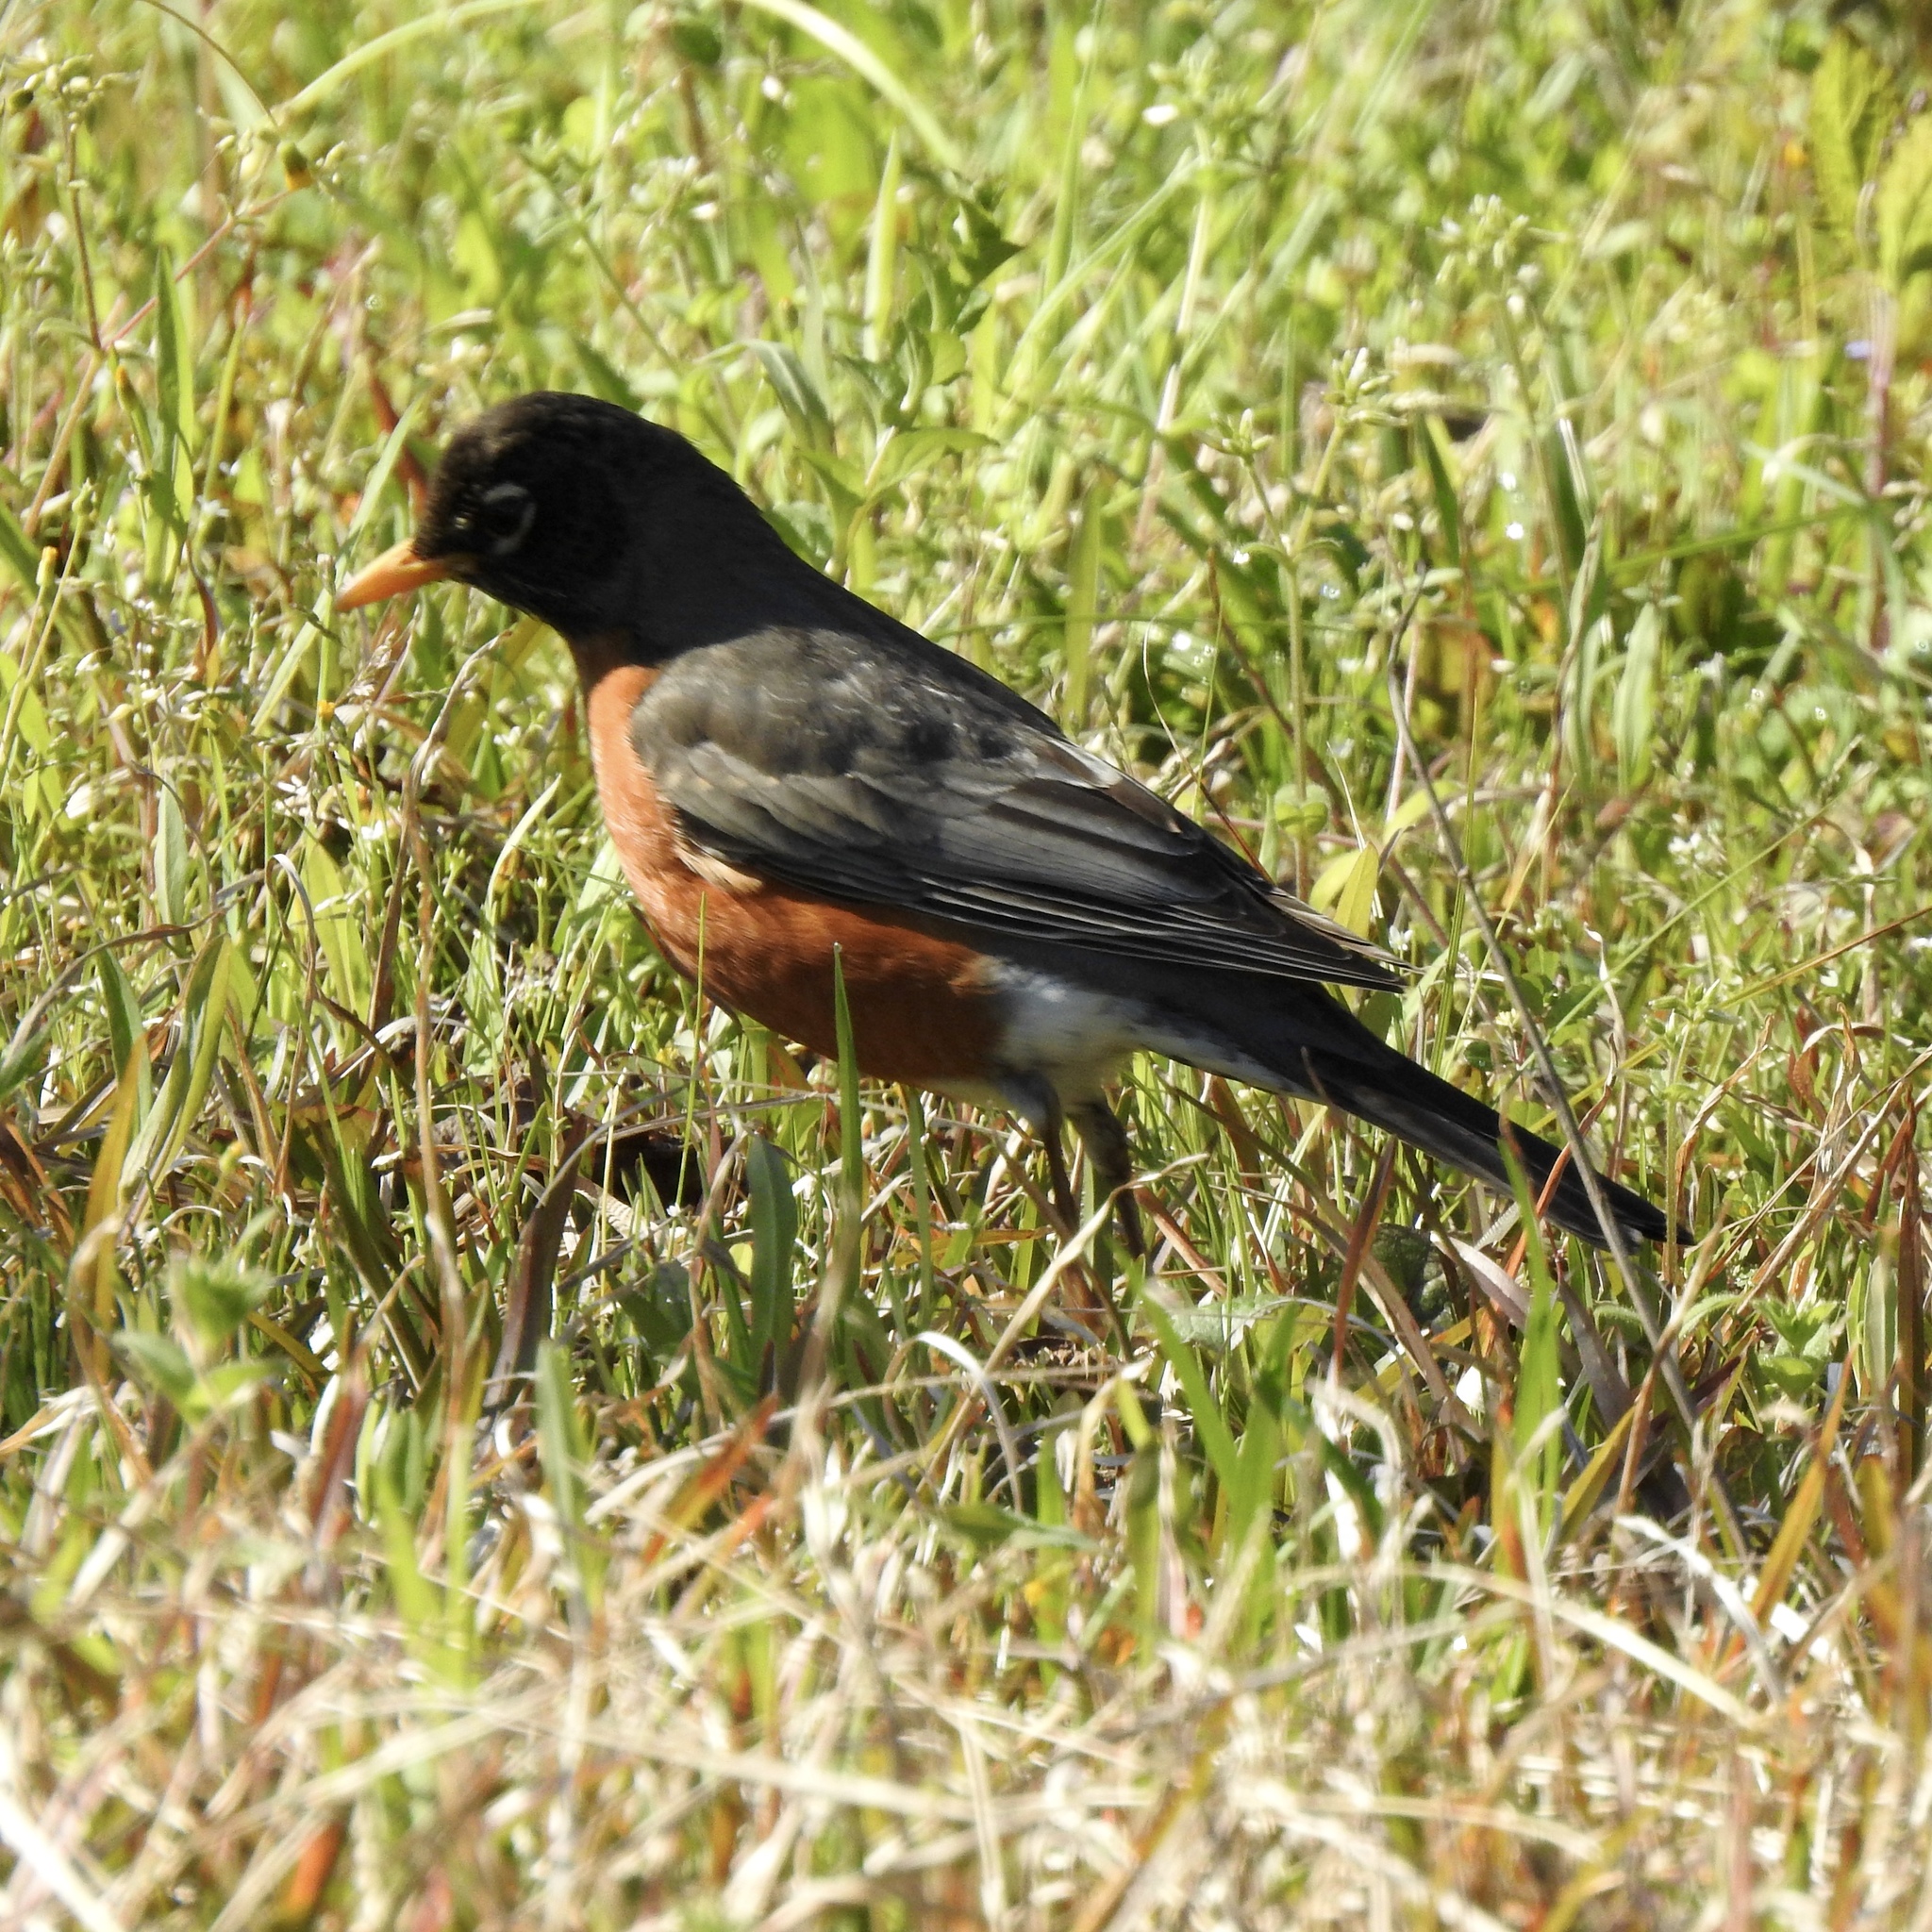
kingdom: Animalia
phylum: Chordata
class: Aves
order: Passeriformes
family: Turdidae
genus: Turdus
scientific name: Turdus migratorius
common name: American robin
